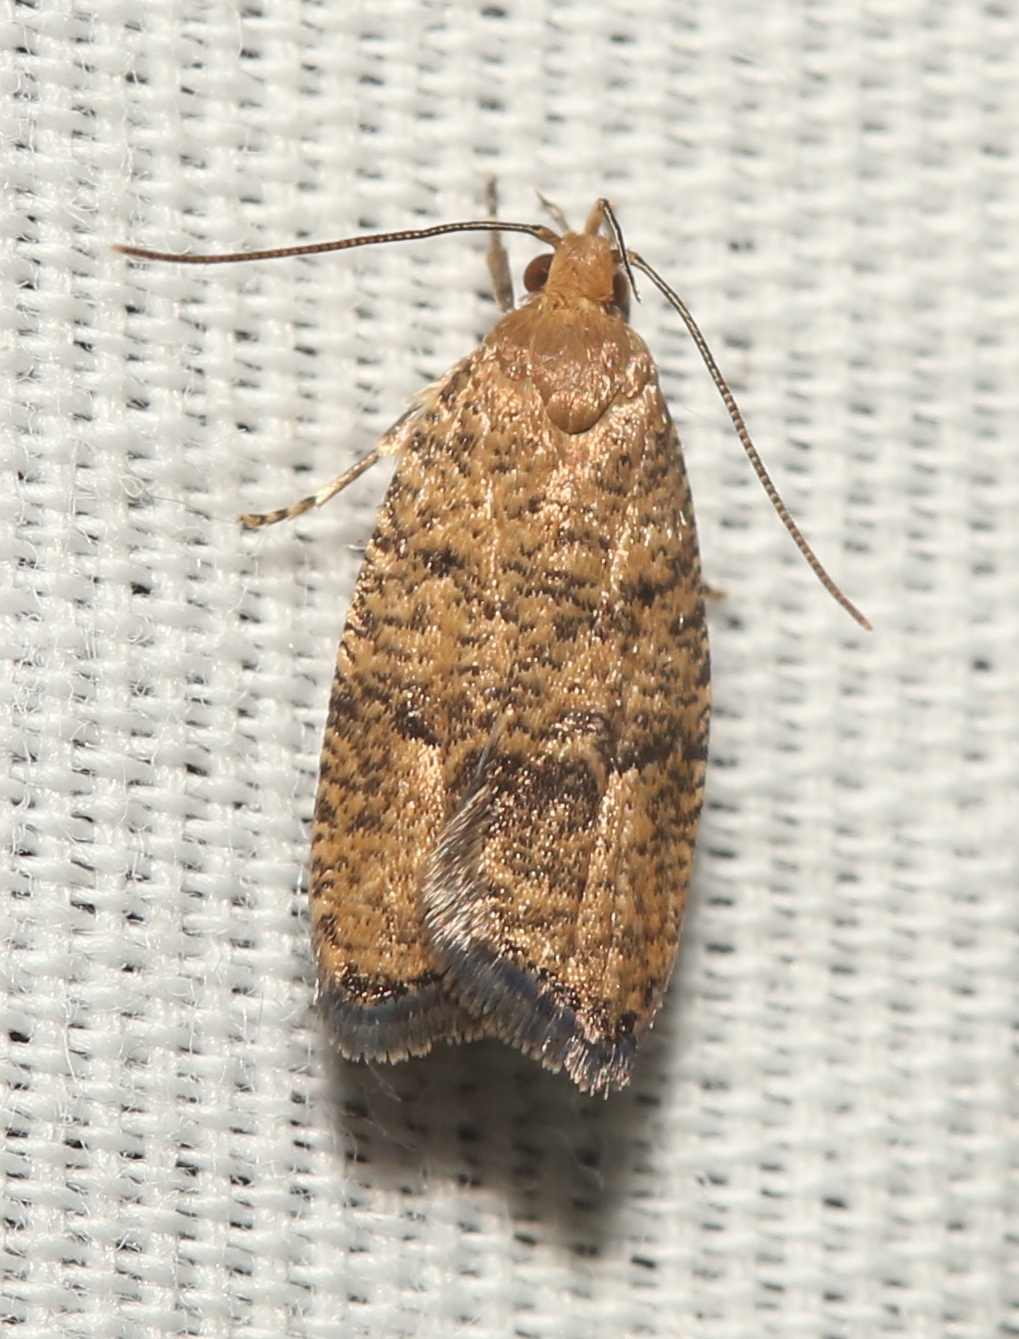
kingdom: Animalia
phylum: Arthropoda
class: Insecta
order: Lepidoptera
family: Depressariidae
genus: Psilocorsis
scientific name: Psilocorsis quercicella
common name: Oak leaftier moth
